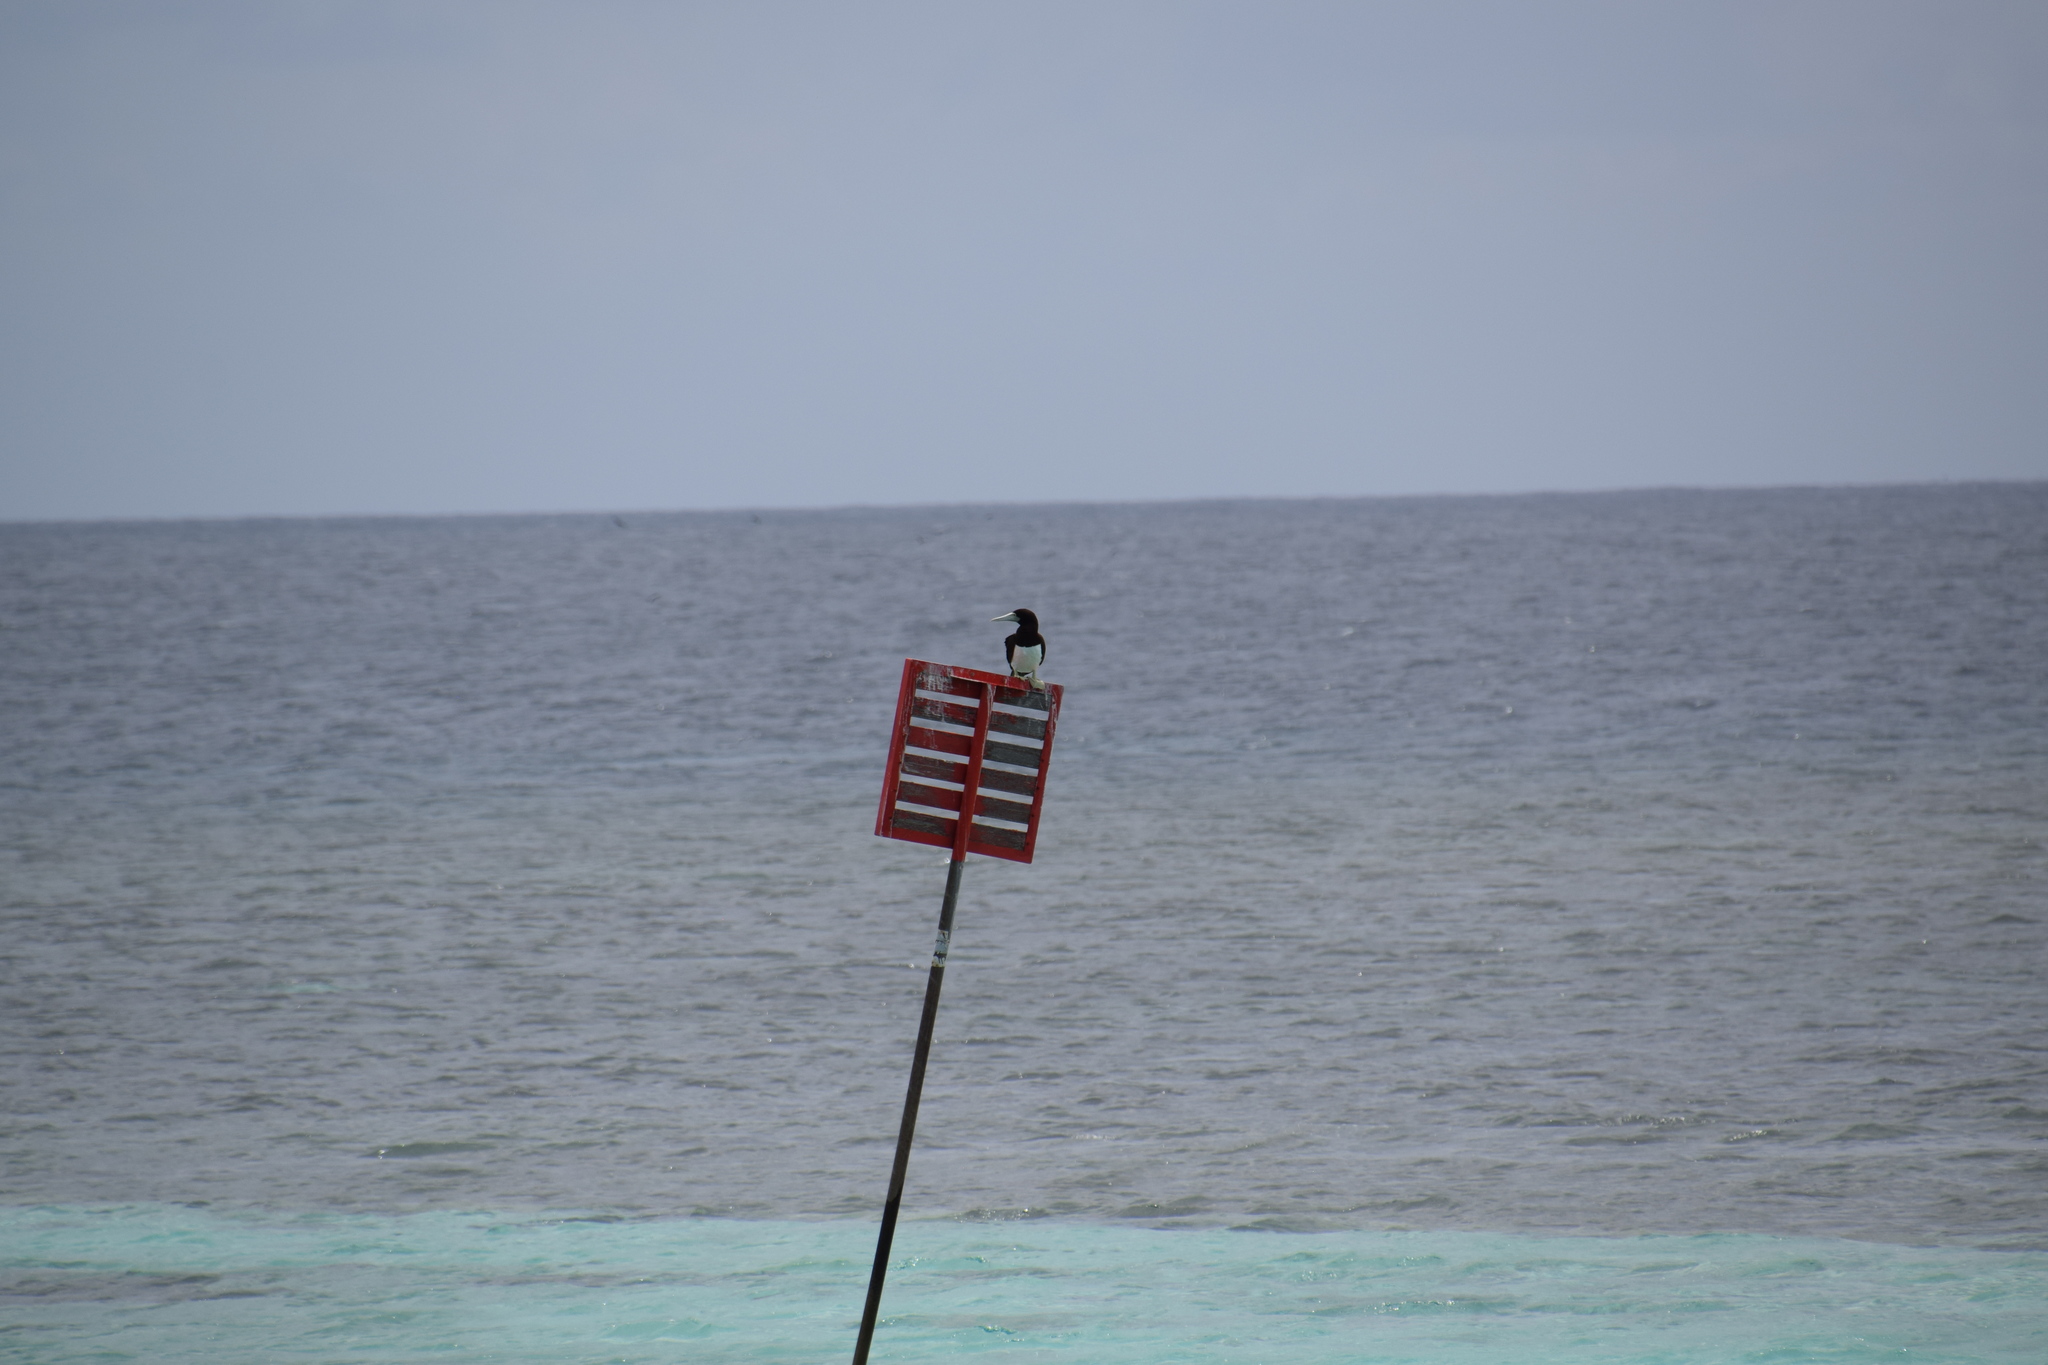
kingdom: Animalia
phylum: Chordata
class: Aves
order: Suliformes
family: Sulidae
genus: Sula
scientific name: Sula leucogaster
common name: Brown booby
